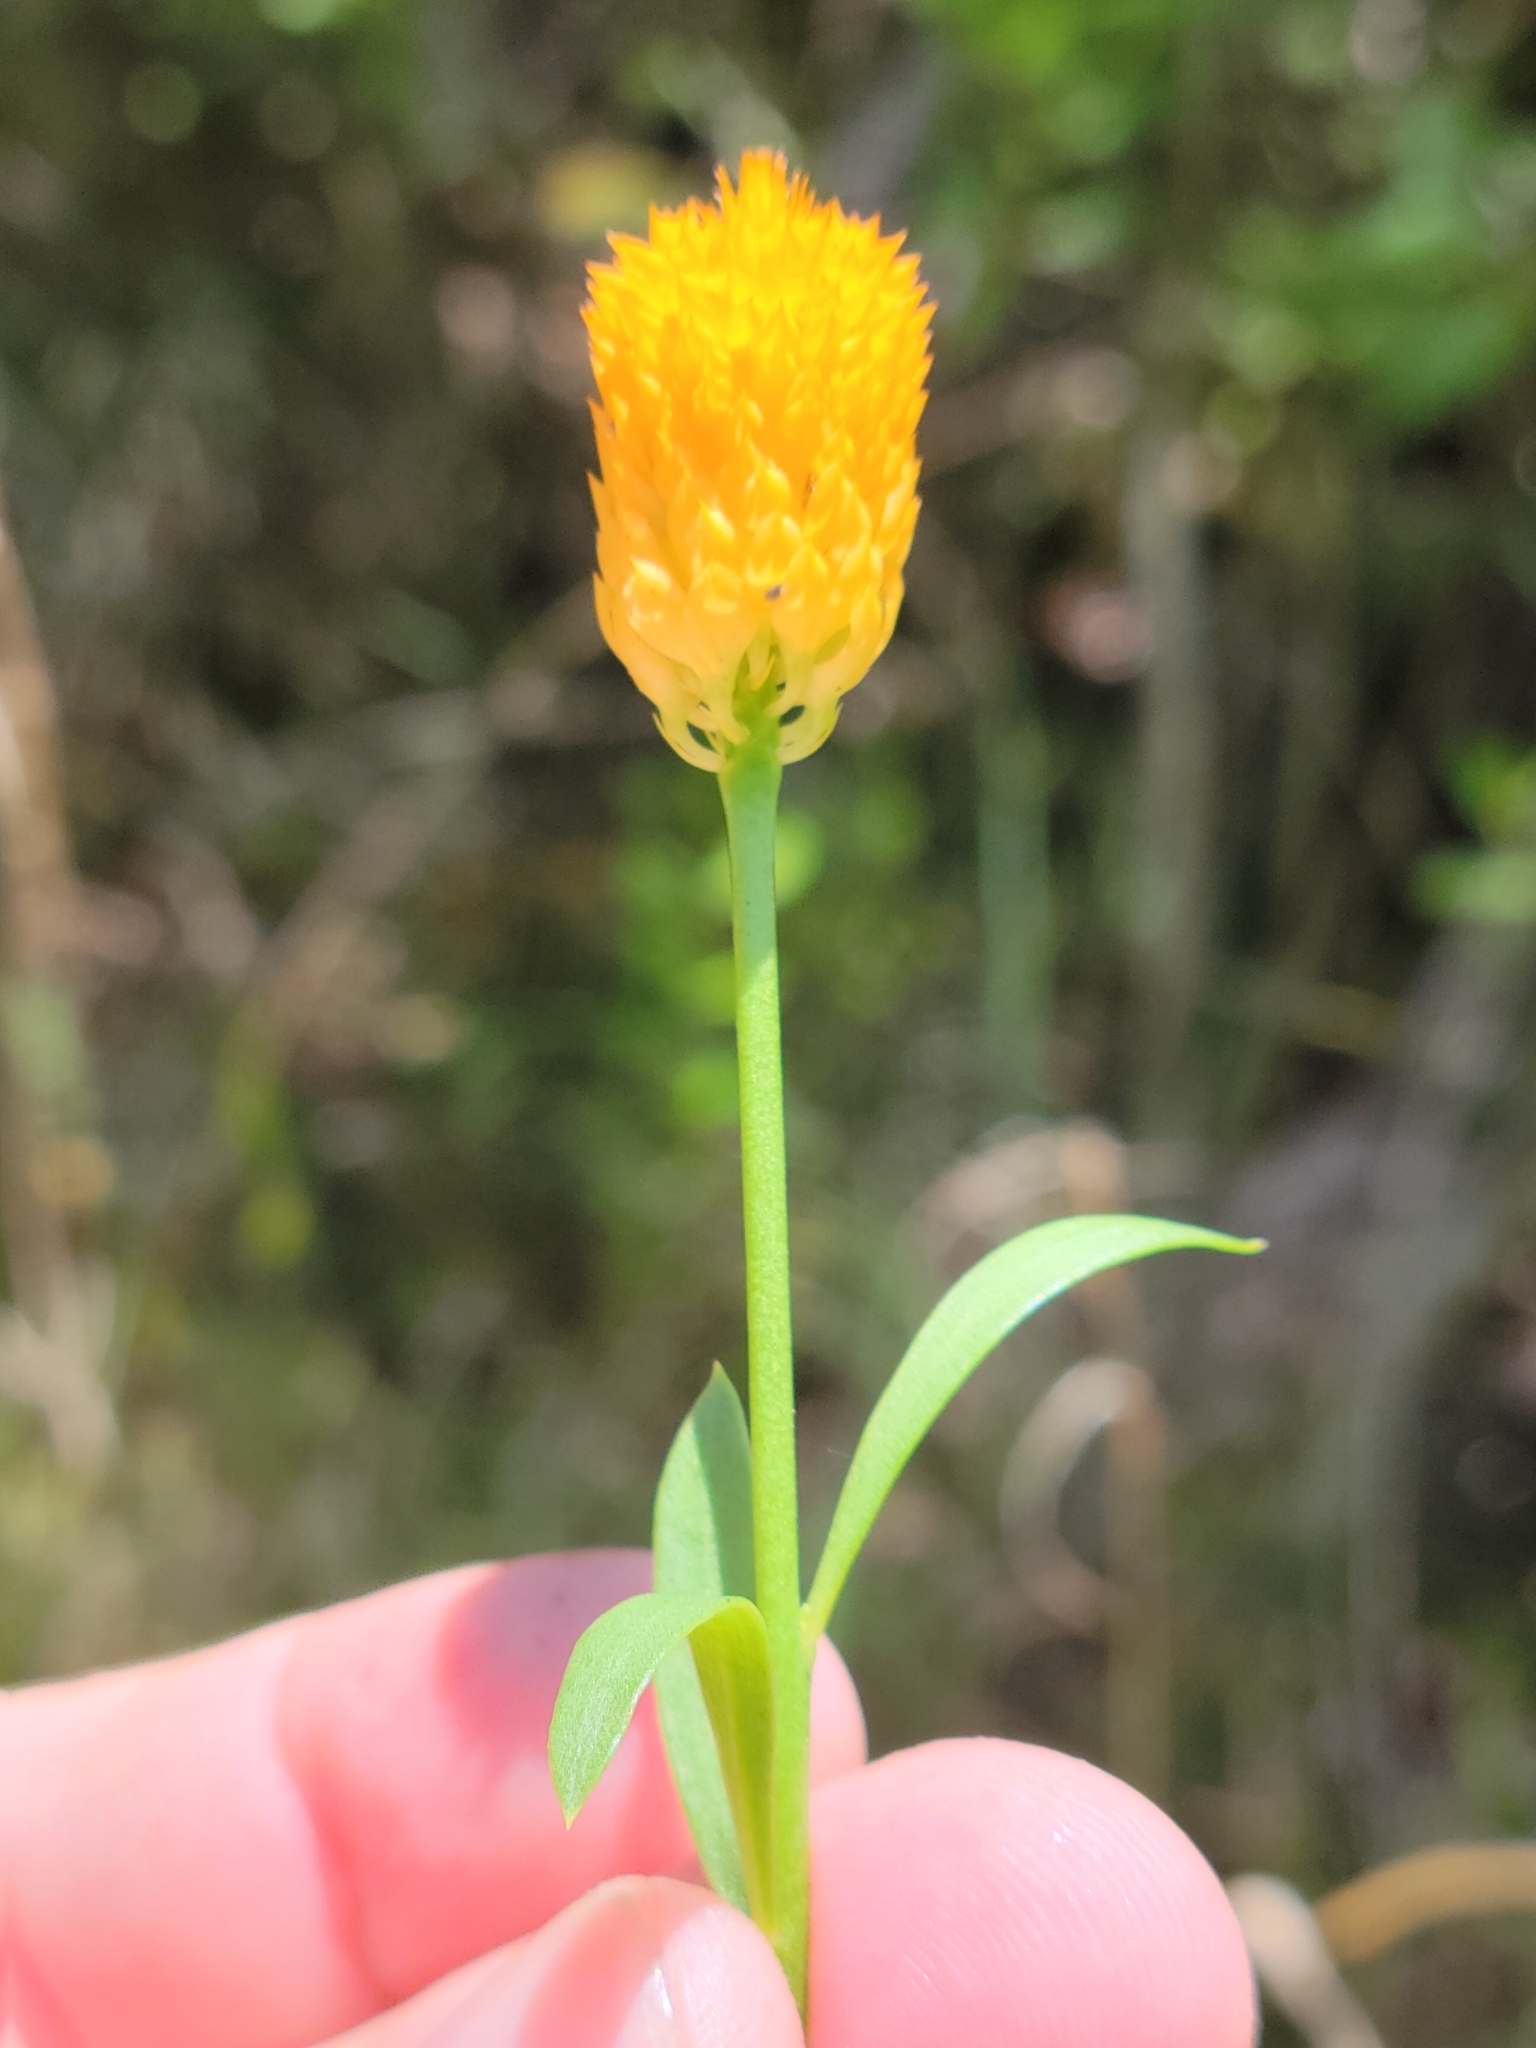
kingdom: Plantae
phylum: Tracheophyta
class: Magnoliopsida
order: Fabales
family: Polygalaceae
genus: Polygala
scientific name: Polygala lutea
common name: Orange milkwort
